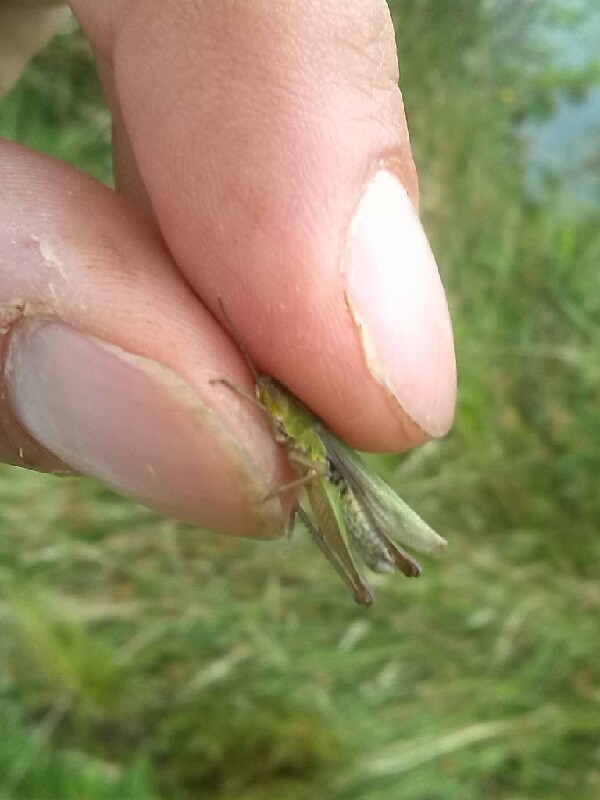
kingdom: Animalia
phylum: Arthropoda
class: Insecta
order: Orthoptera
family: Acrididae
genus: Chorthippus
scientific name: Chorthippus albomarginatus
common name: Lesser marsh grasshopper
